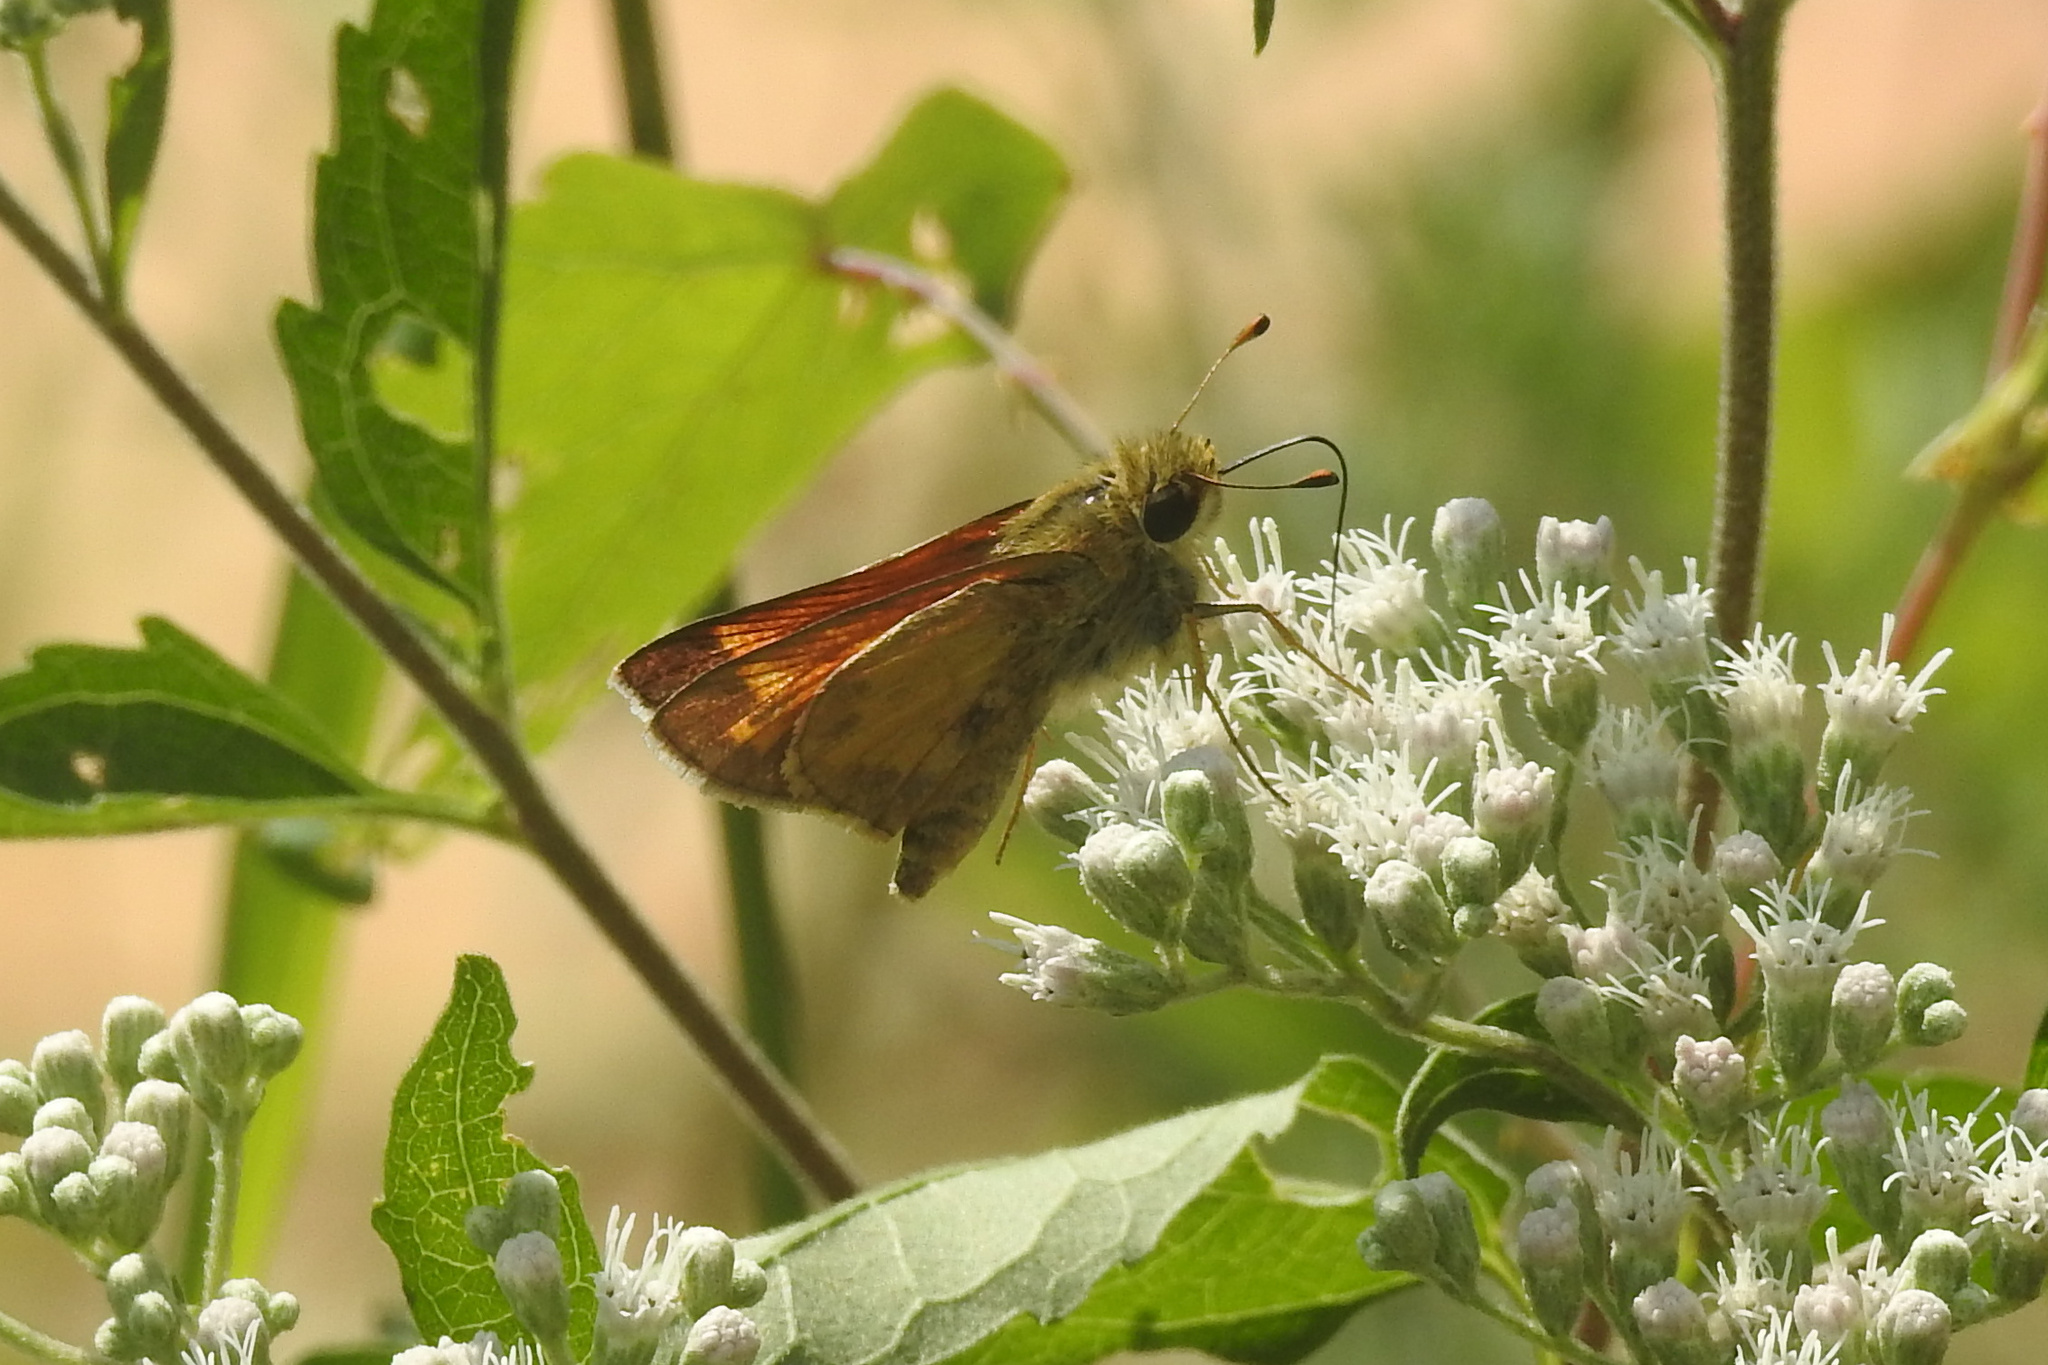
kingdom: Animalia
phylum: Arthropoda
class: Insecta
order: Lepidoptera
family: Hesperiidae
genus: Atalopedes
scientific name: Atalopedes
